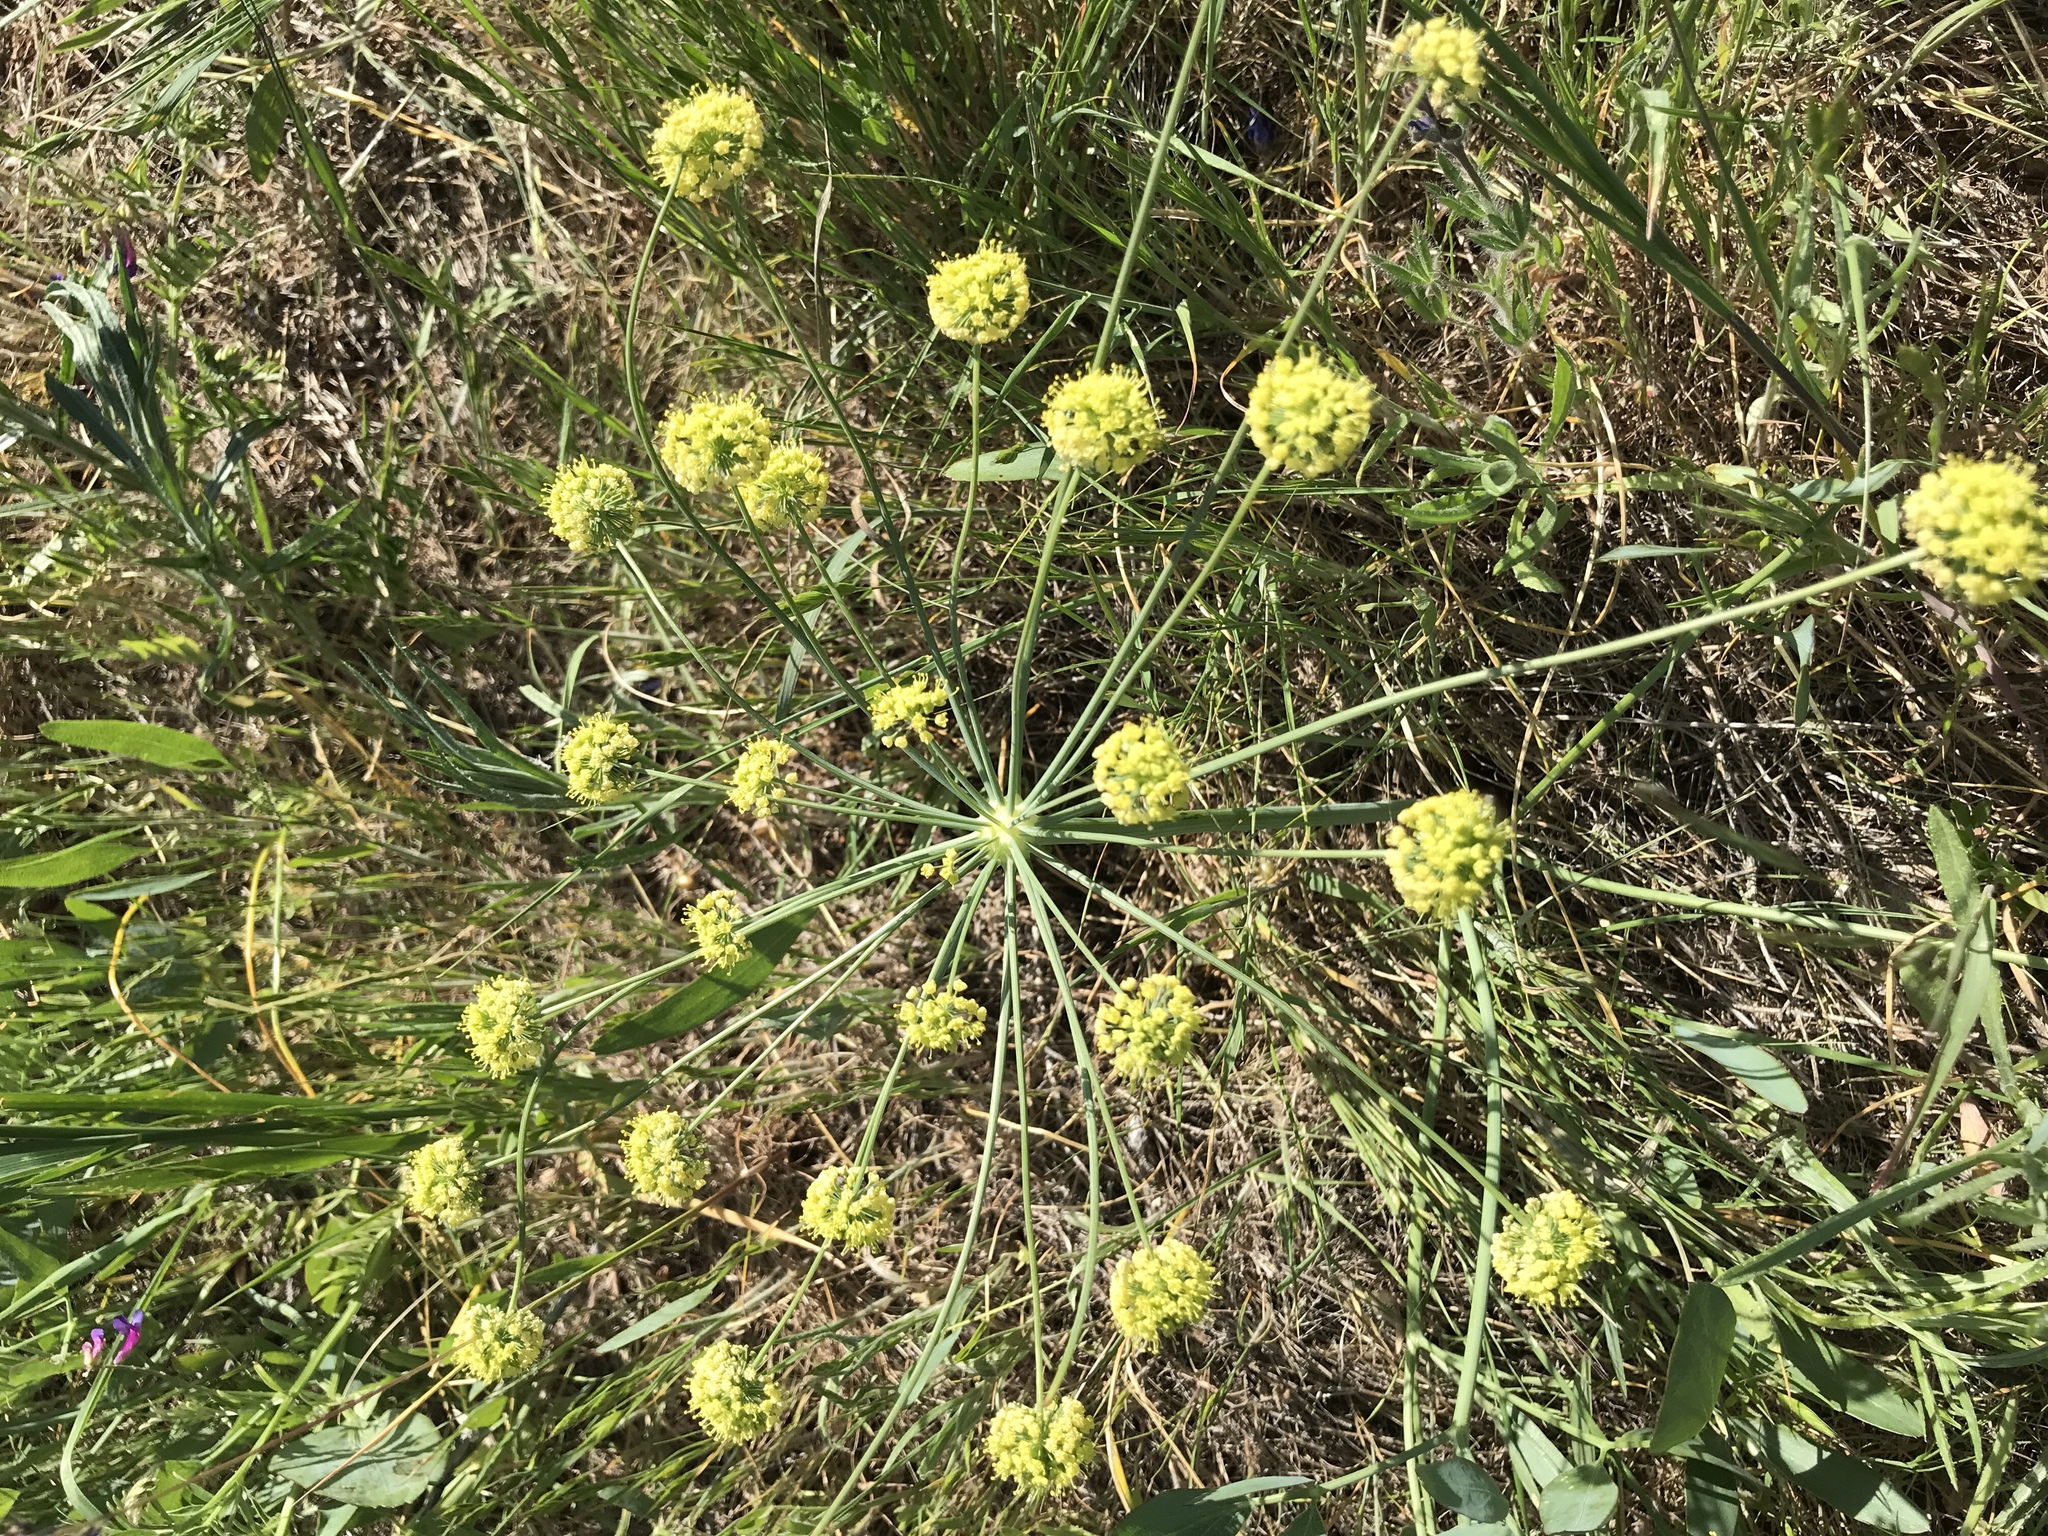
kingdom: Plantae
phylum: Tracheophyta
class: Magnoliopsida
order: Apiales
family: Apiaceae
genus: Lomatium
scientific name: Lomatium nudicaule
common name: Pestle lomatium
